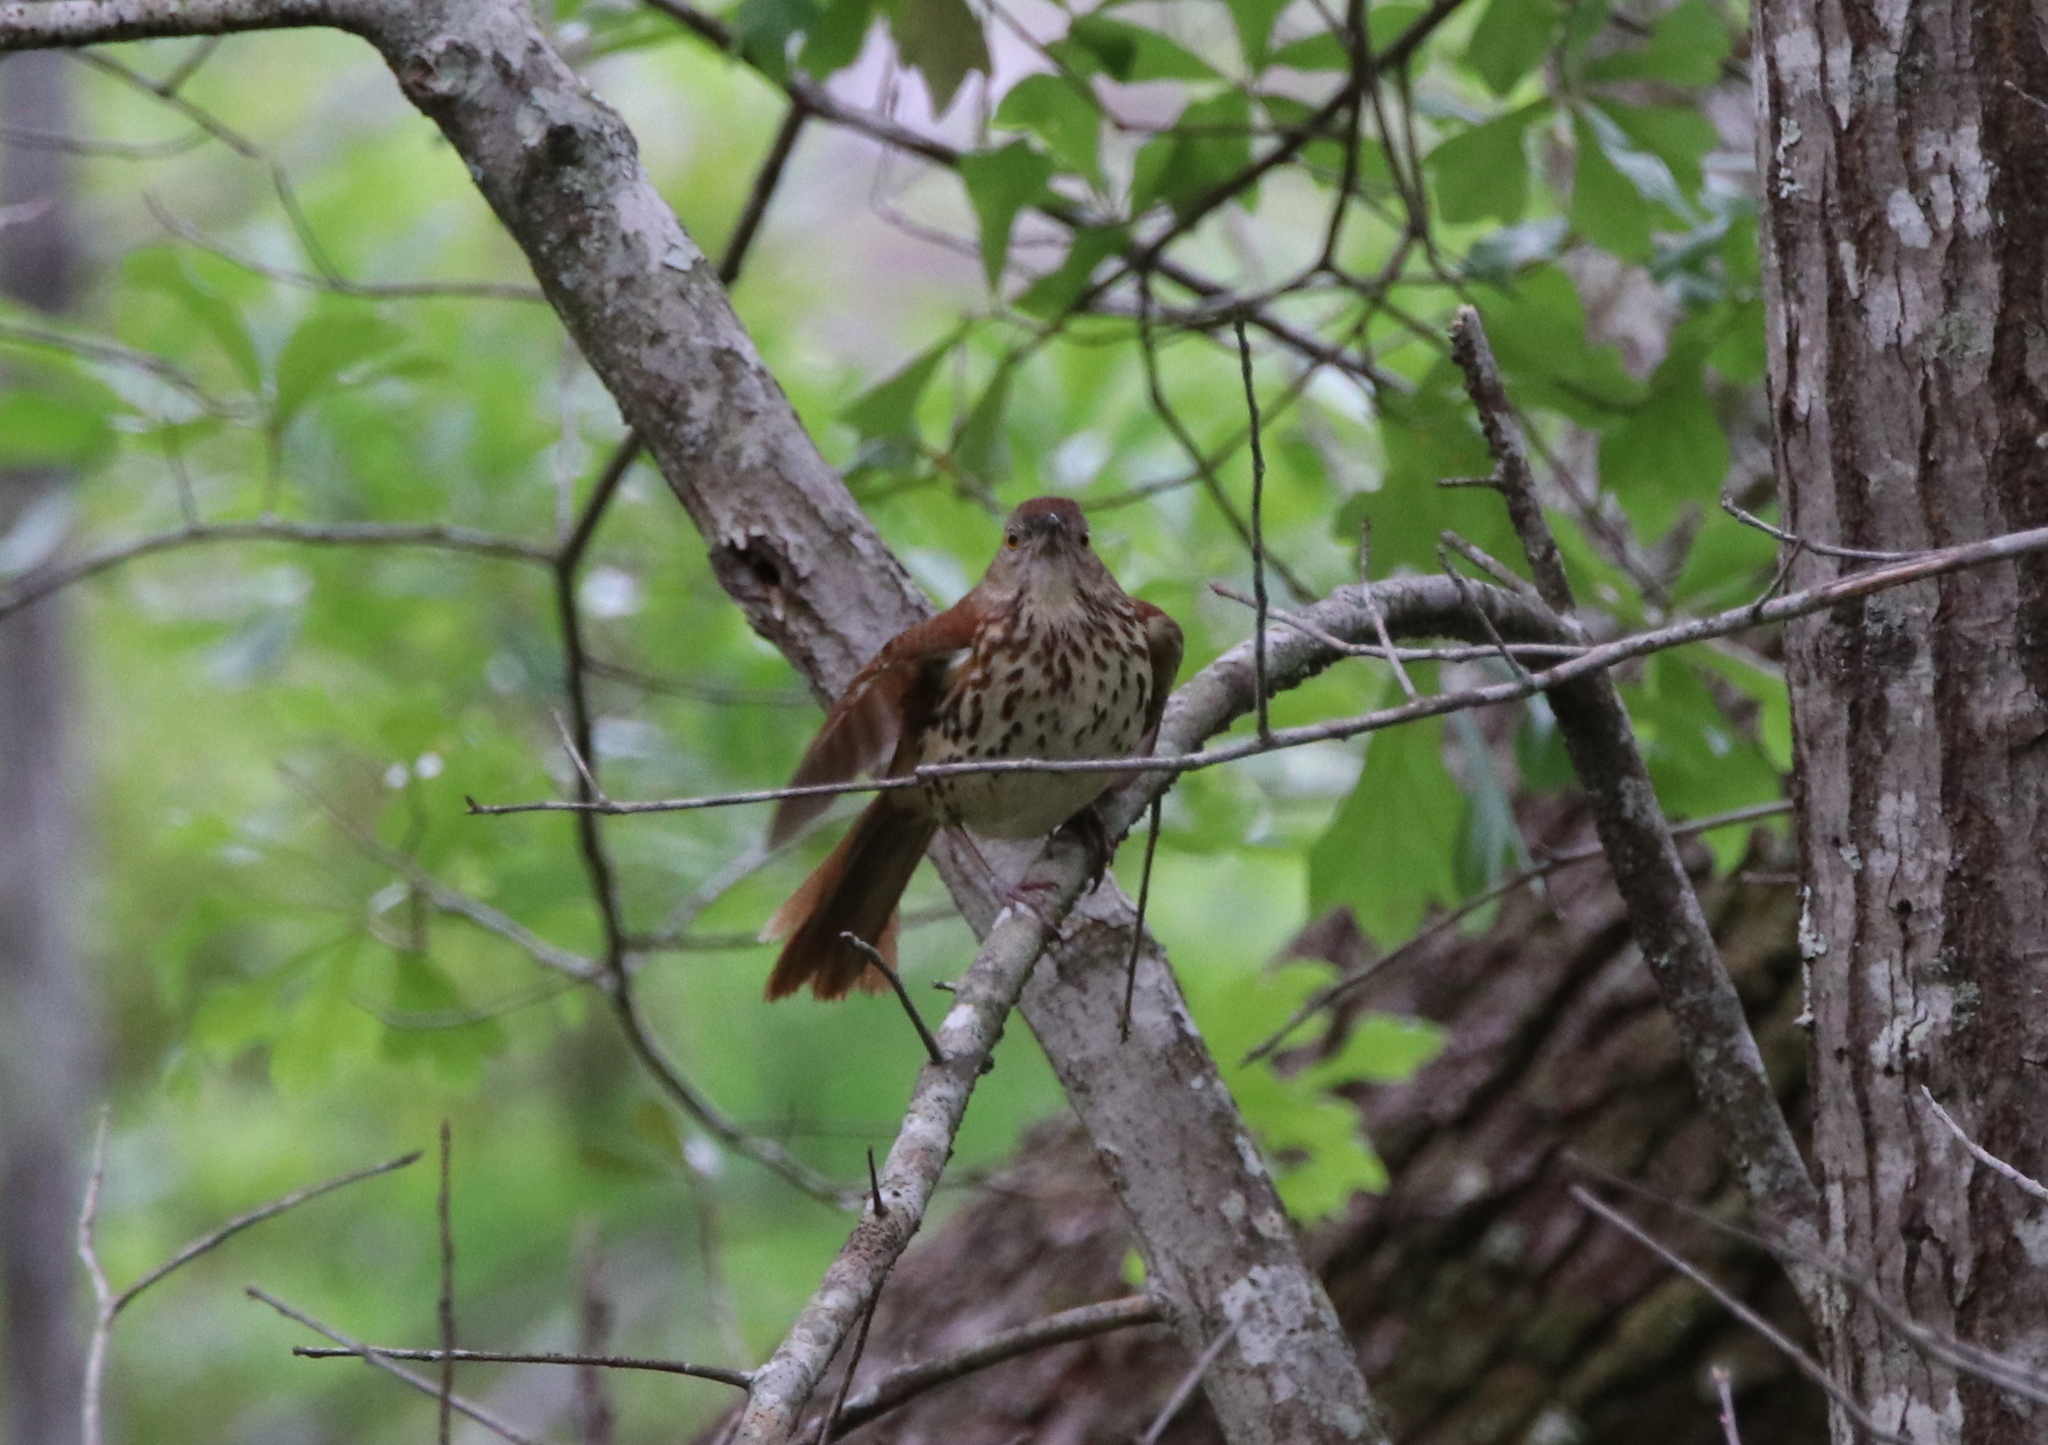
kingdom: Animalia
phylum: Chordata
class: Aves
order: Passeriformes
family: Mimidae
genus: Toxostoma
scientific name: Toxostoma rufum
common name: Brown thrasher
